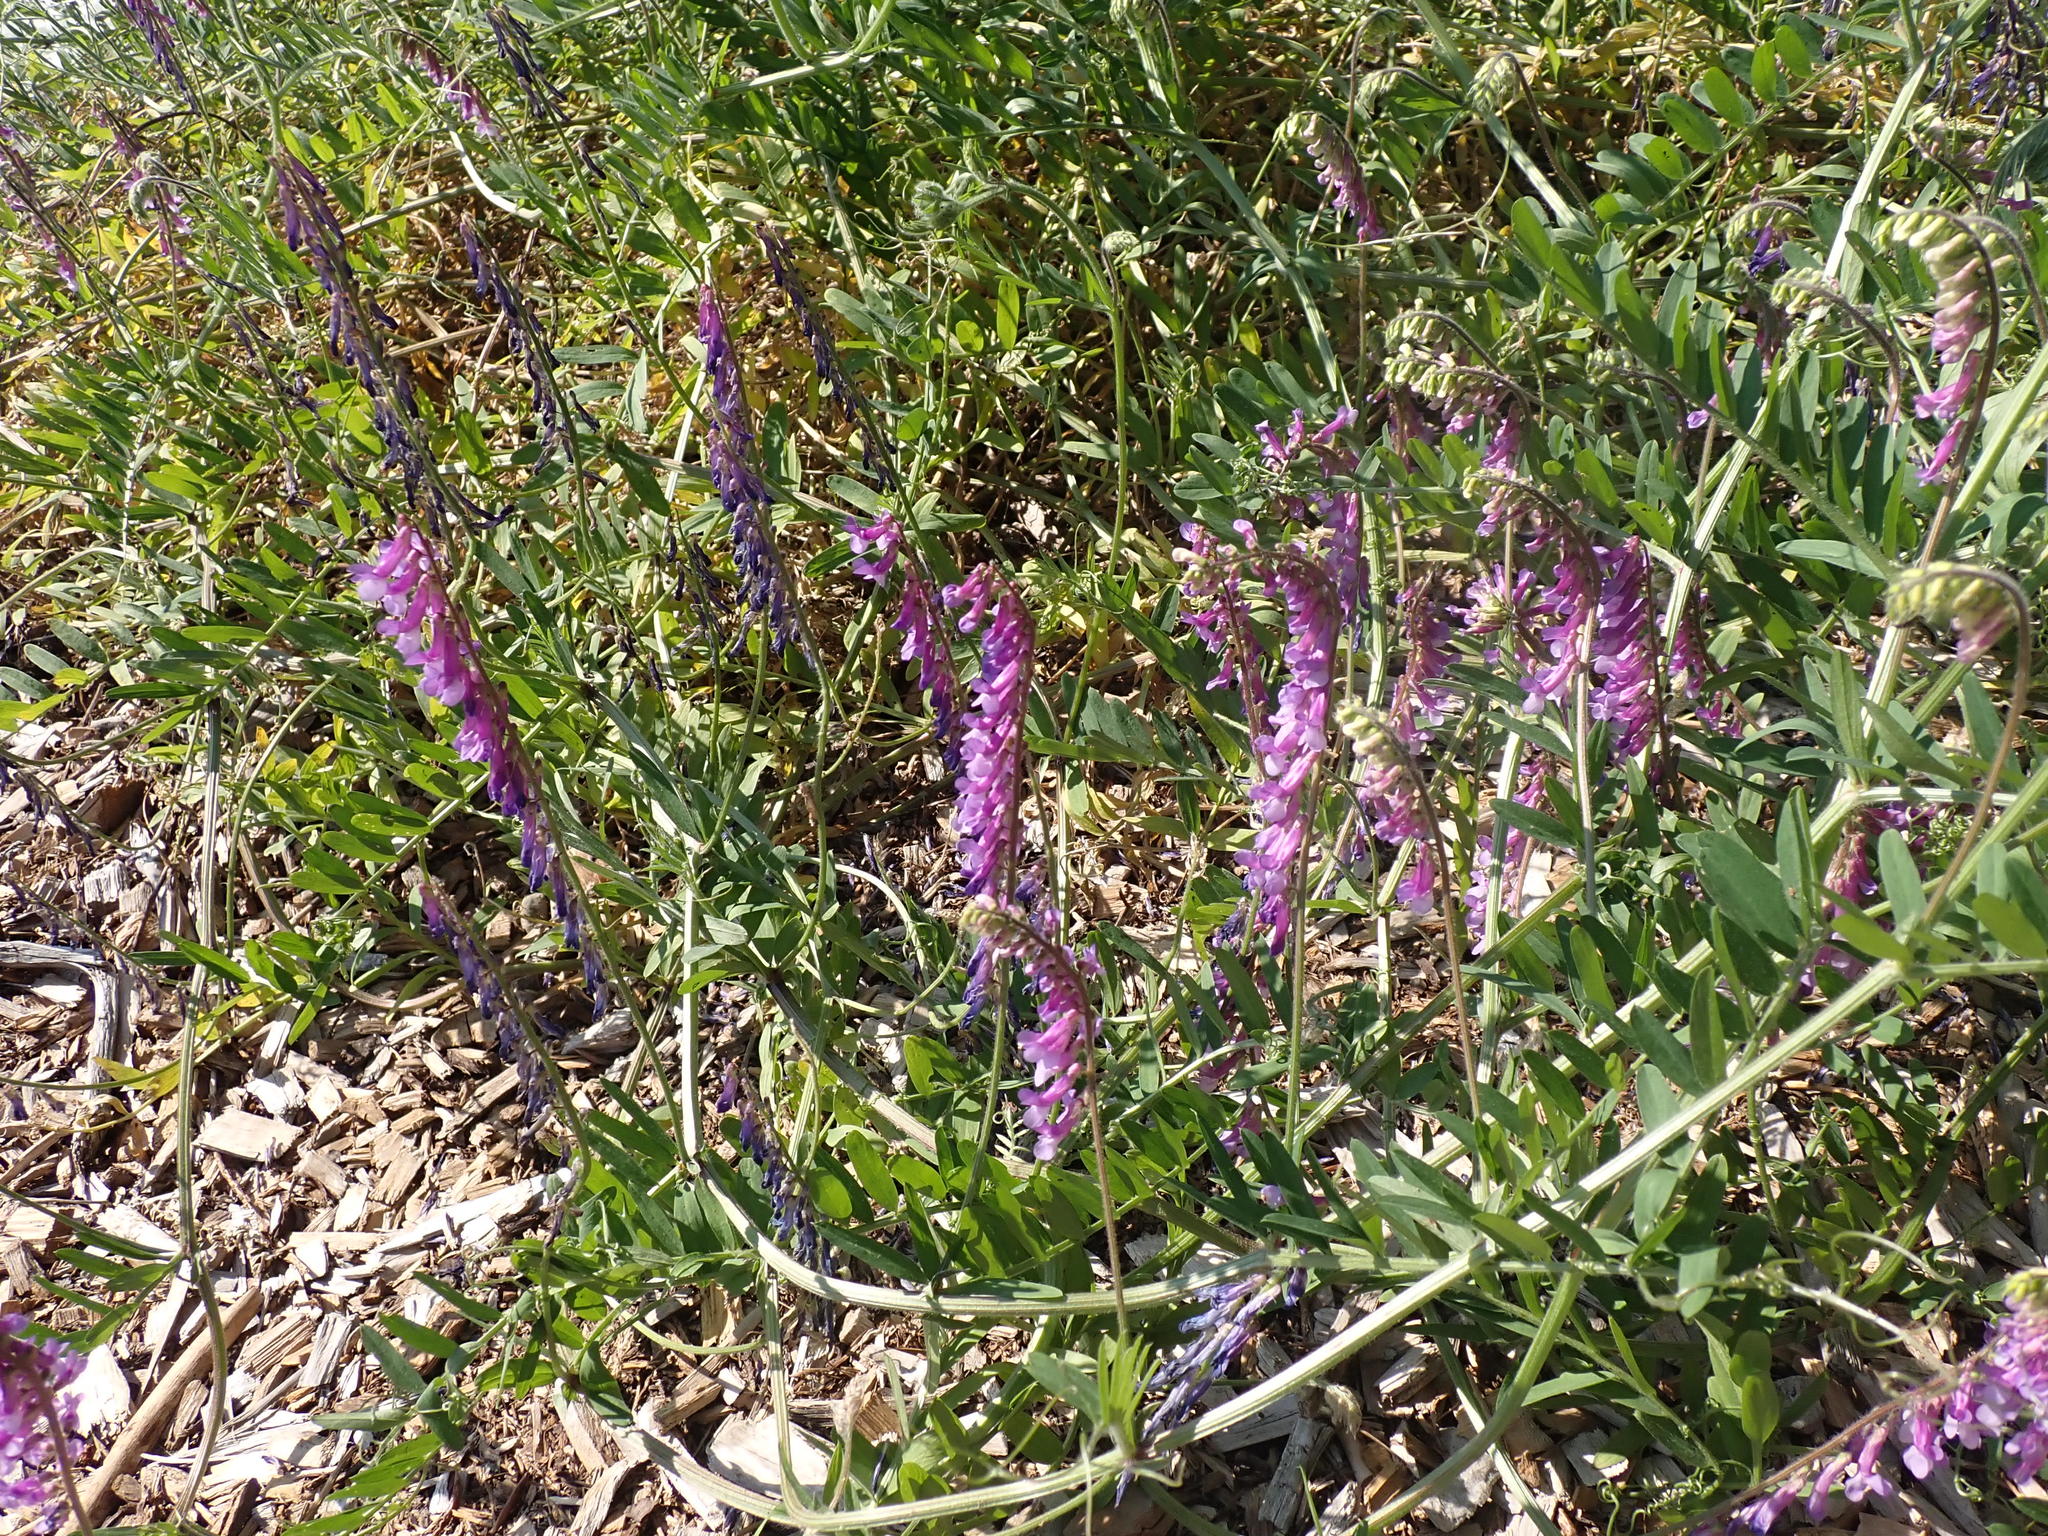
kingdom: Plantae
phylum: Tracheophyta
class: Magnoliopsida
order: Fabales
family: Fabaceae
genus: Vicia
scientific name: Vicia villosa
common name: Fodder vetch
